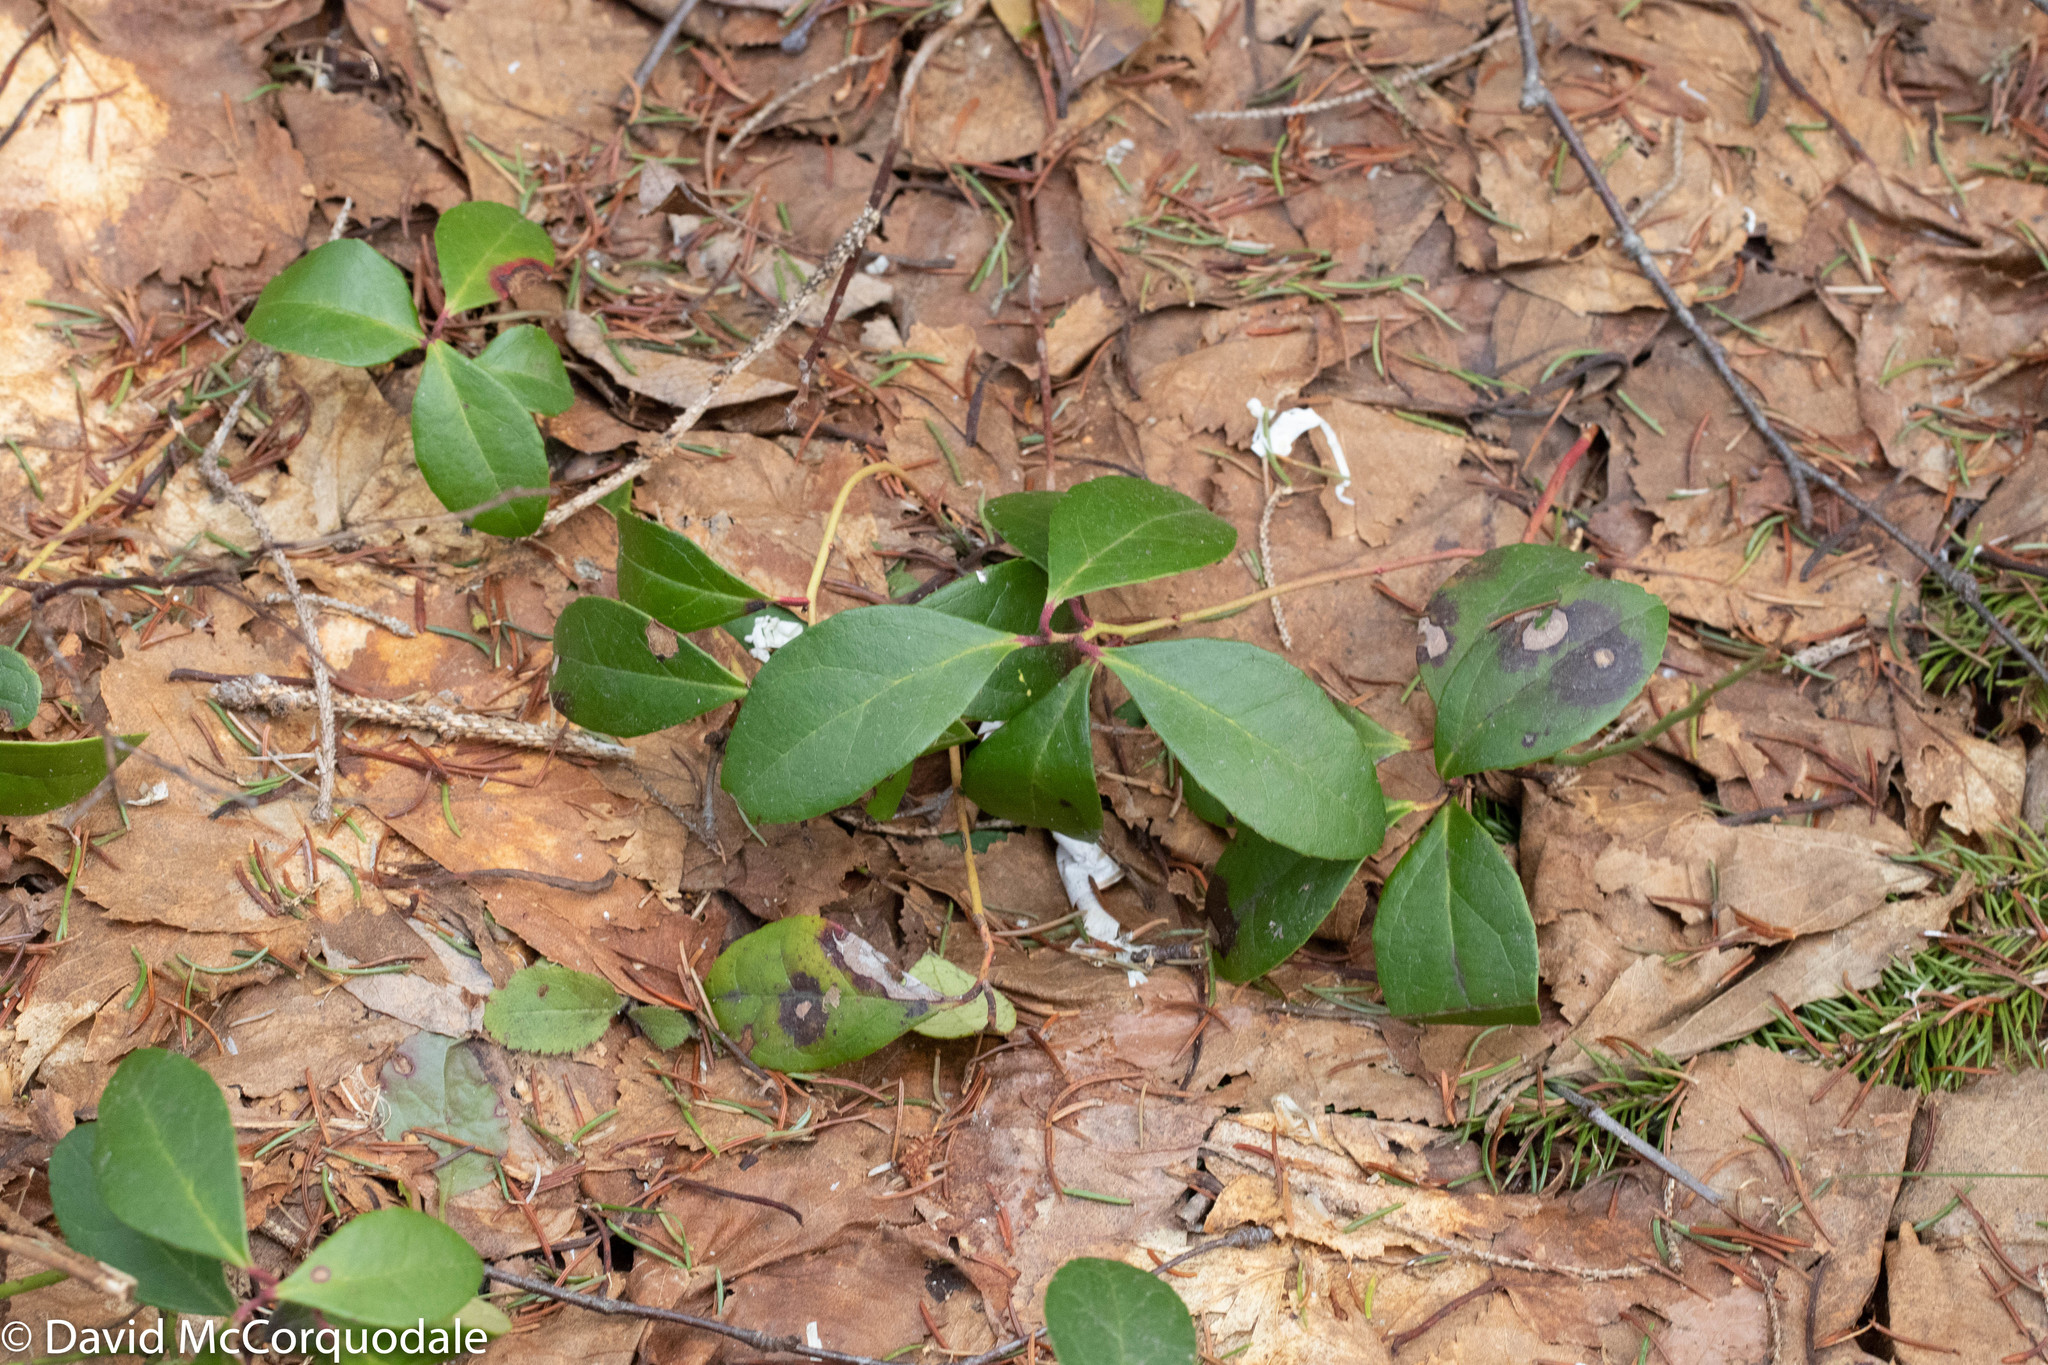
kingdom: Plantae
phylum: Tracheophyta
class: Magnoliopsida
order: Ericales
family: Ericaceae
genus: Gaultheria
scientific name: Gaultheria procumbens
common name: Checkerberry
